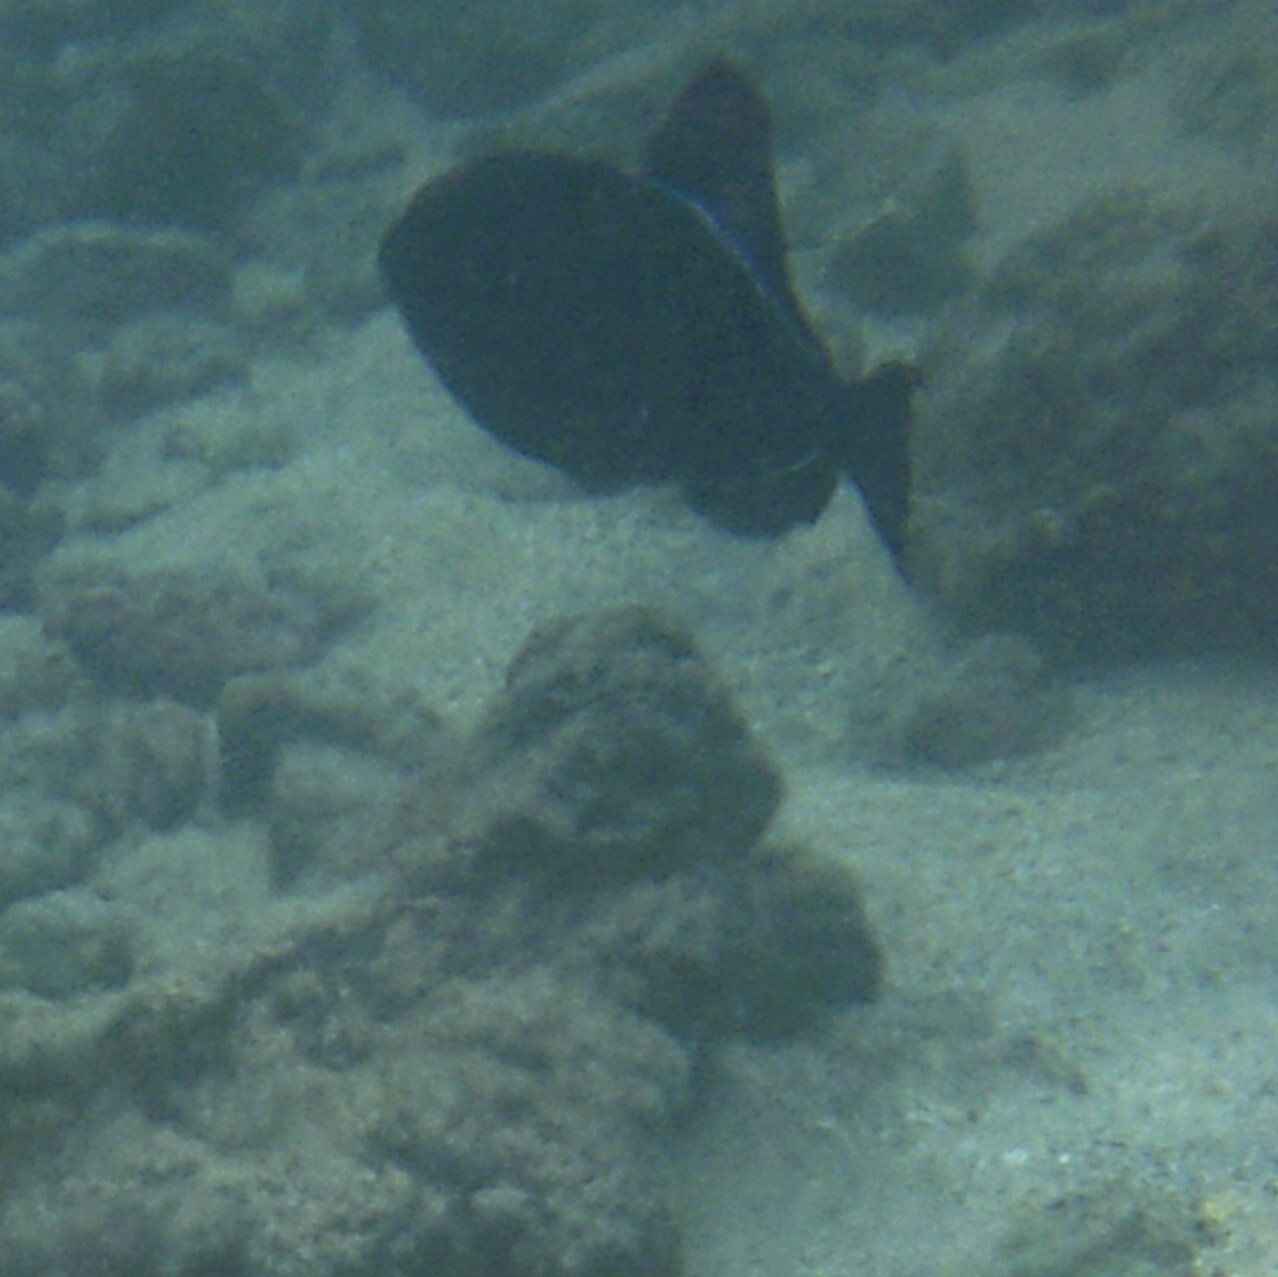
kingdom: Animalia
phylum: Chordata
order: Tetraodontiformes
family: Balistidae
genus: Melichthys
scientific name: Melichthys niger
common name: Black durgon
